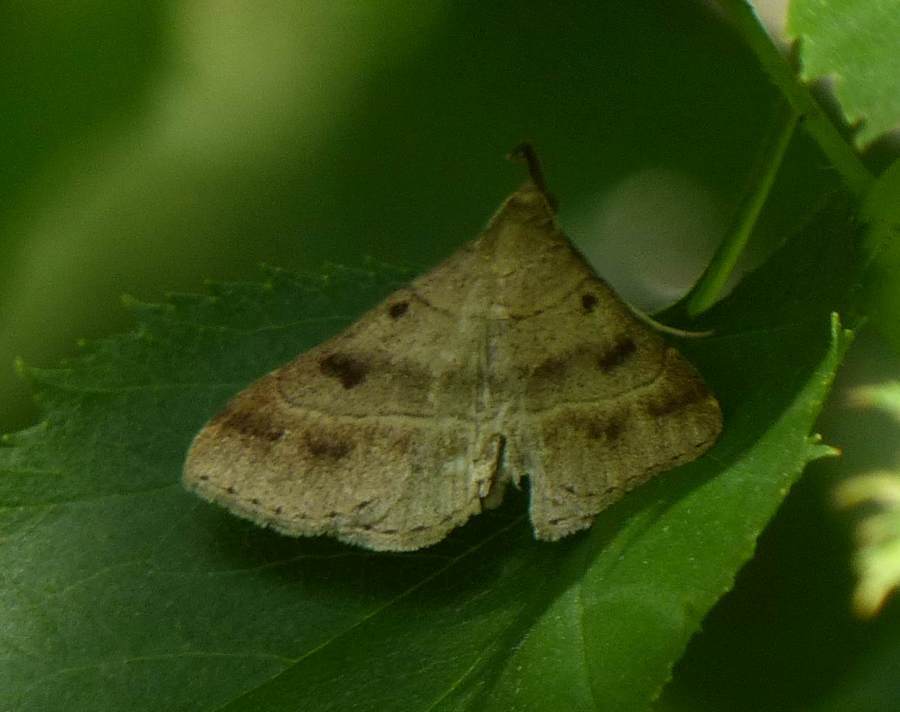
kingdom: Animalia
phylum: Arthropoda
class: Insecta
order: Lepidoptera
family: Erebidae
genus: Renia
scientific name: Renia flavipunctalis
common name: Yellow-spotted renia moth
